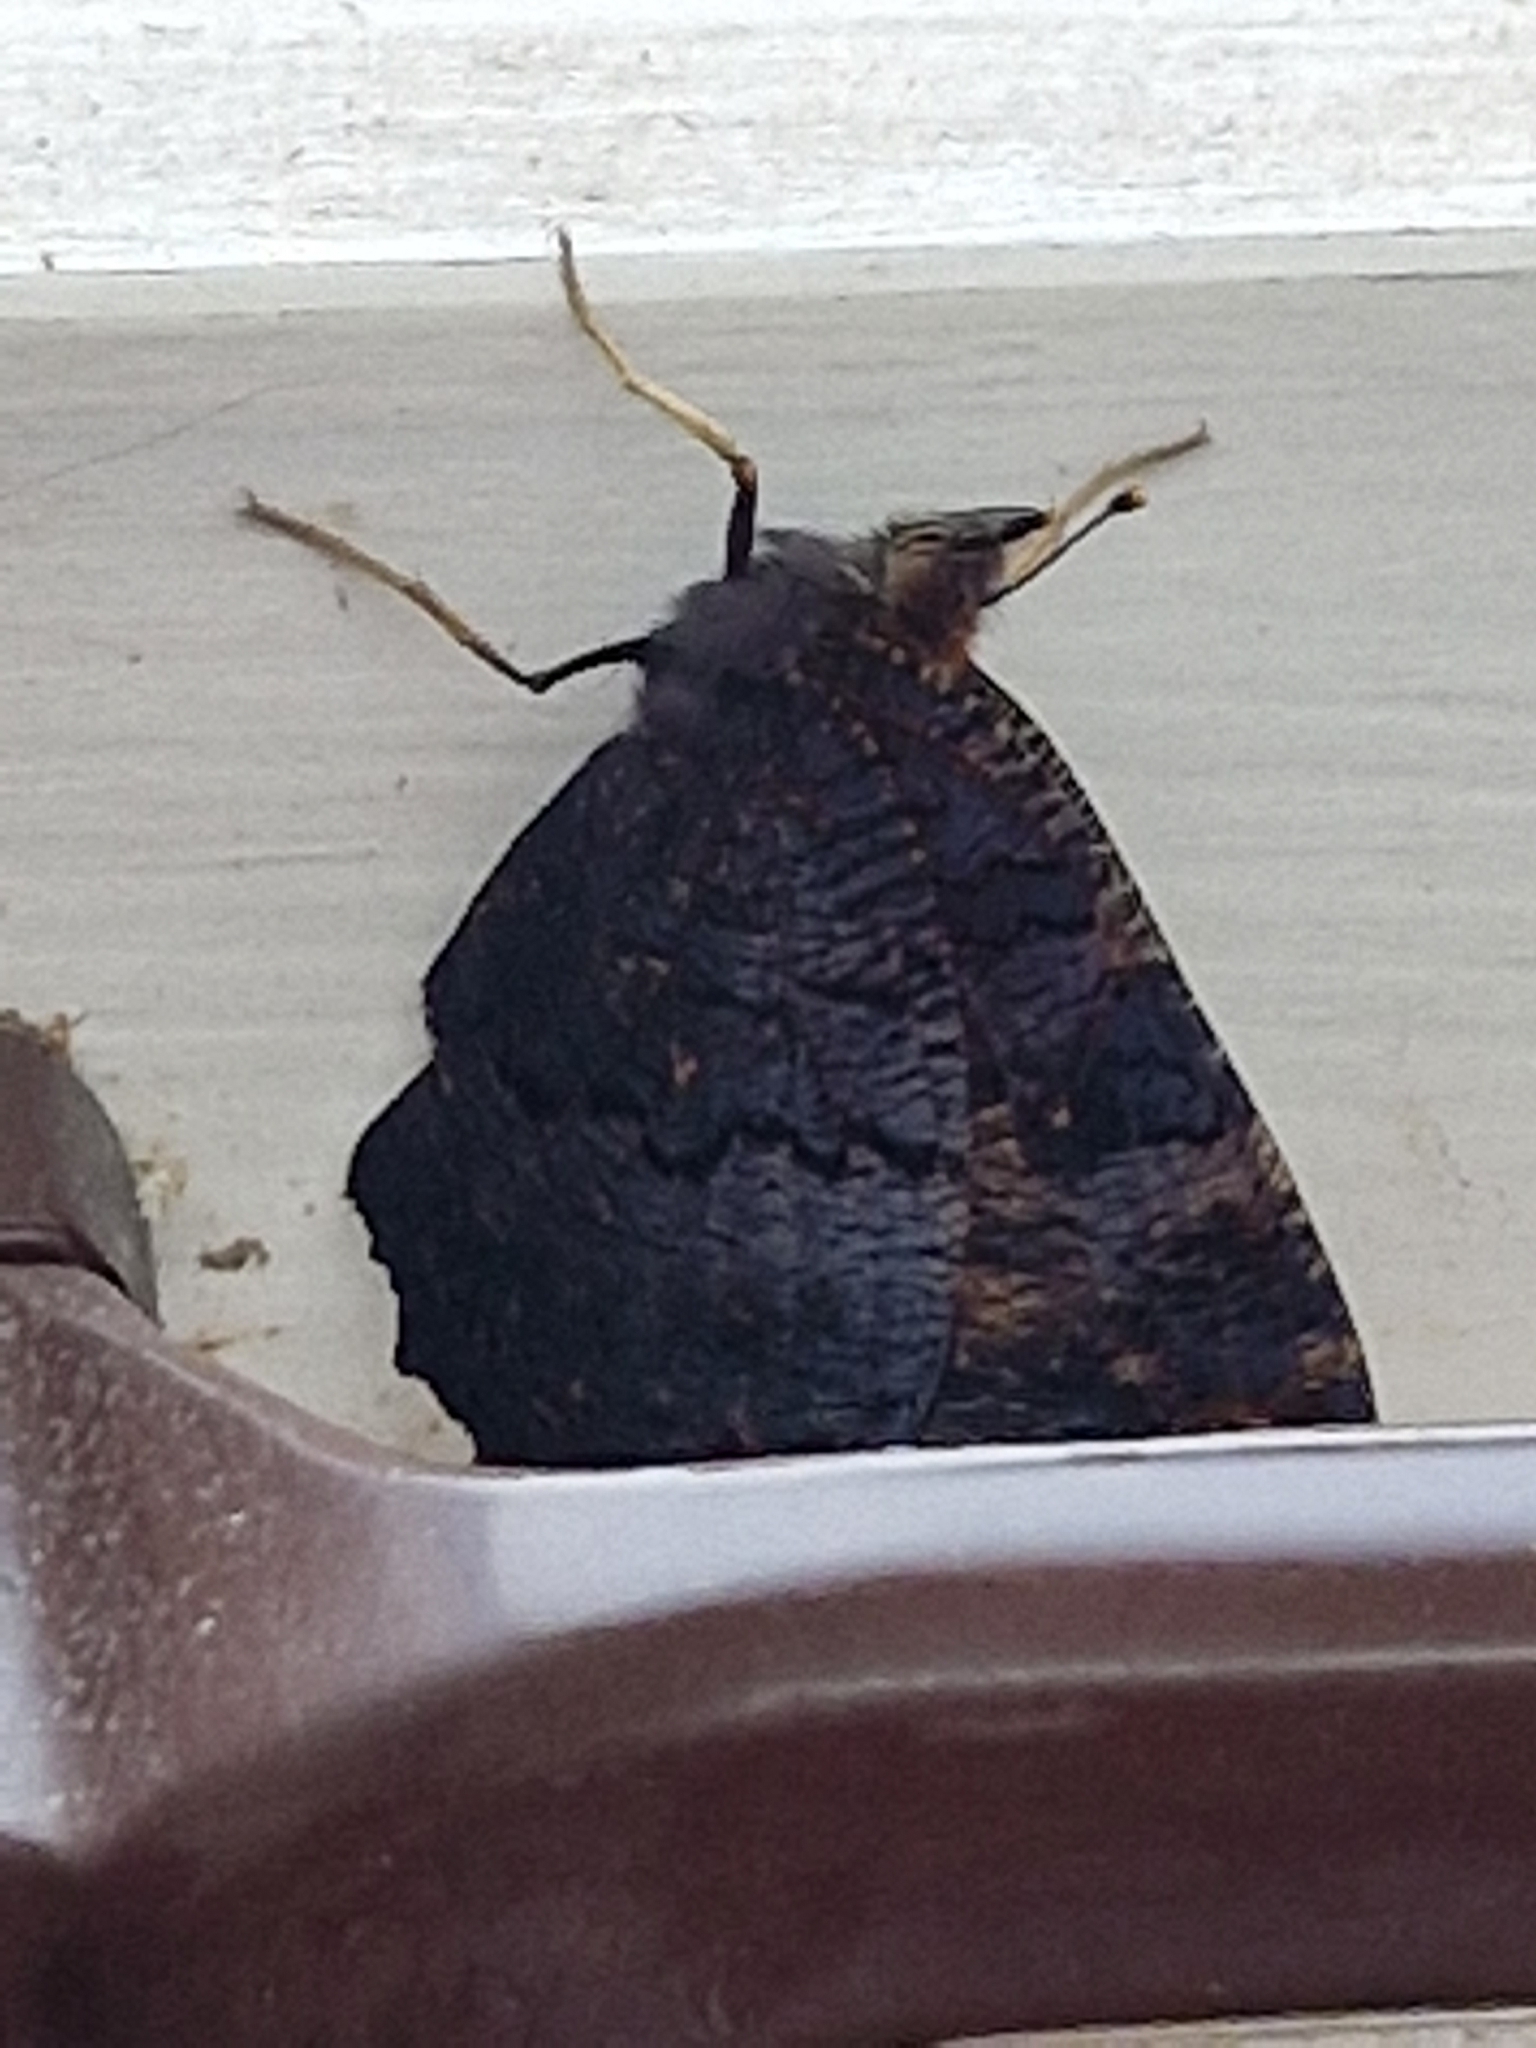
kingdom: Animalia
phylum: Arthropoda
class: Insecta
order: Lepidoptera
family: Nymphalidae
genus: Aglais
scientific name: Aglais io
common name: Peacock
